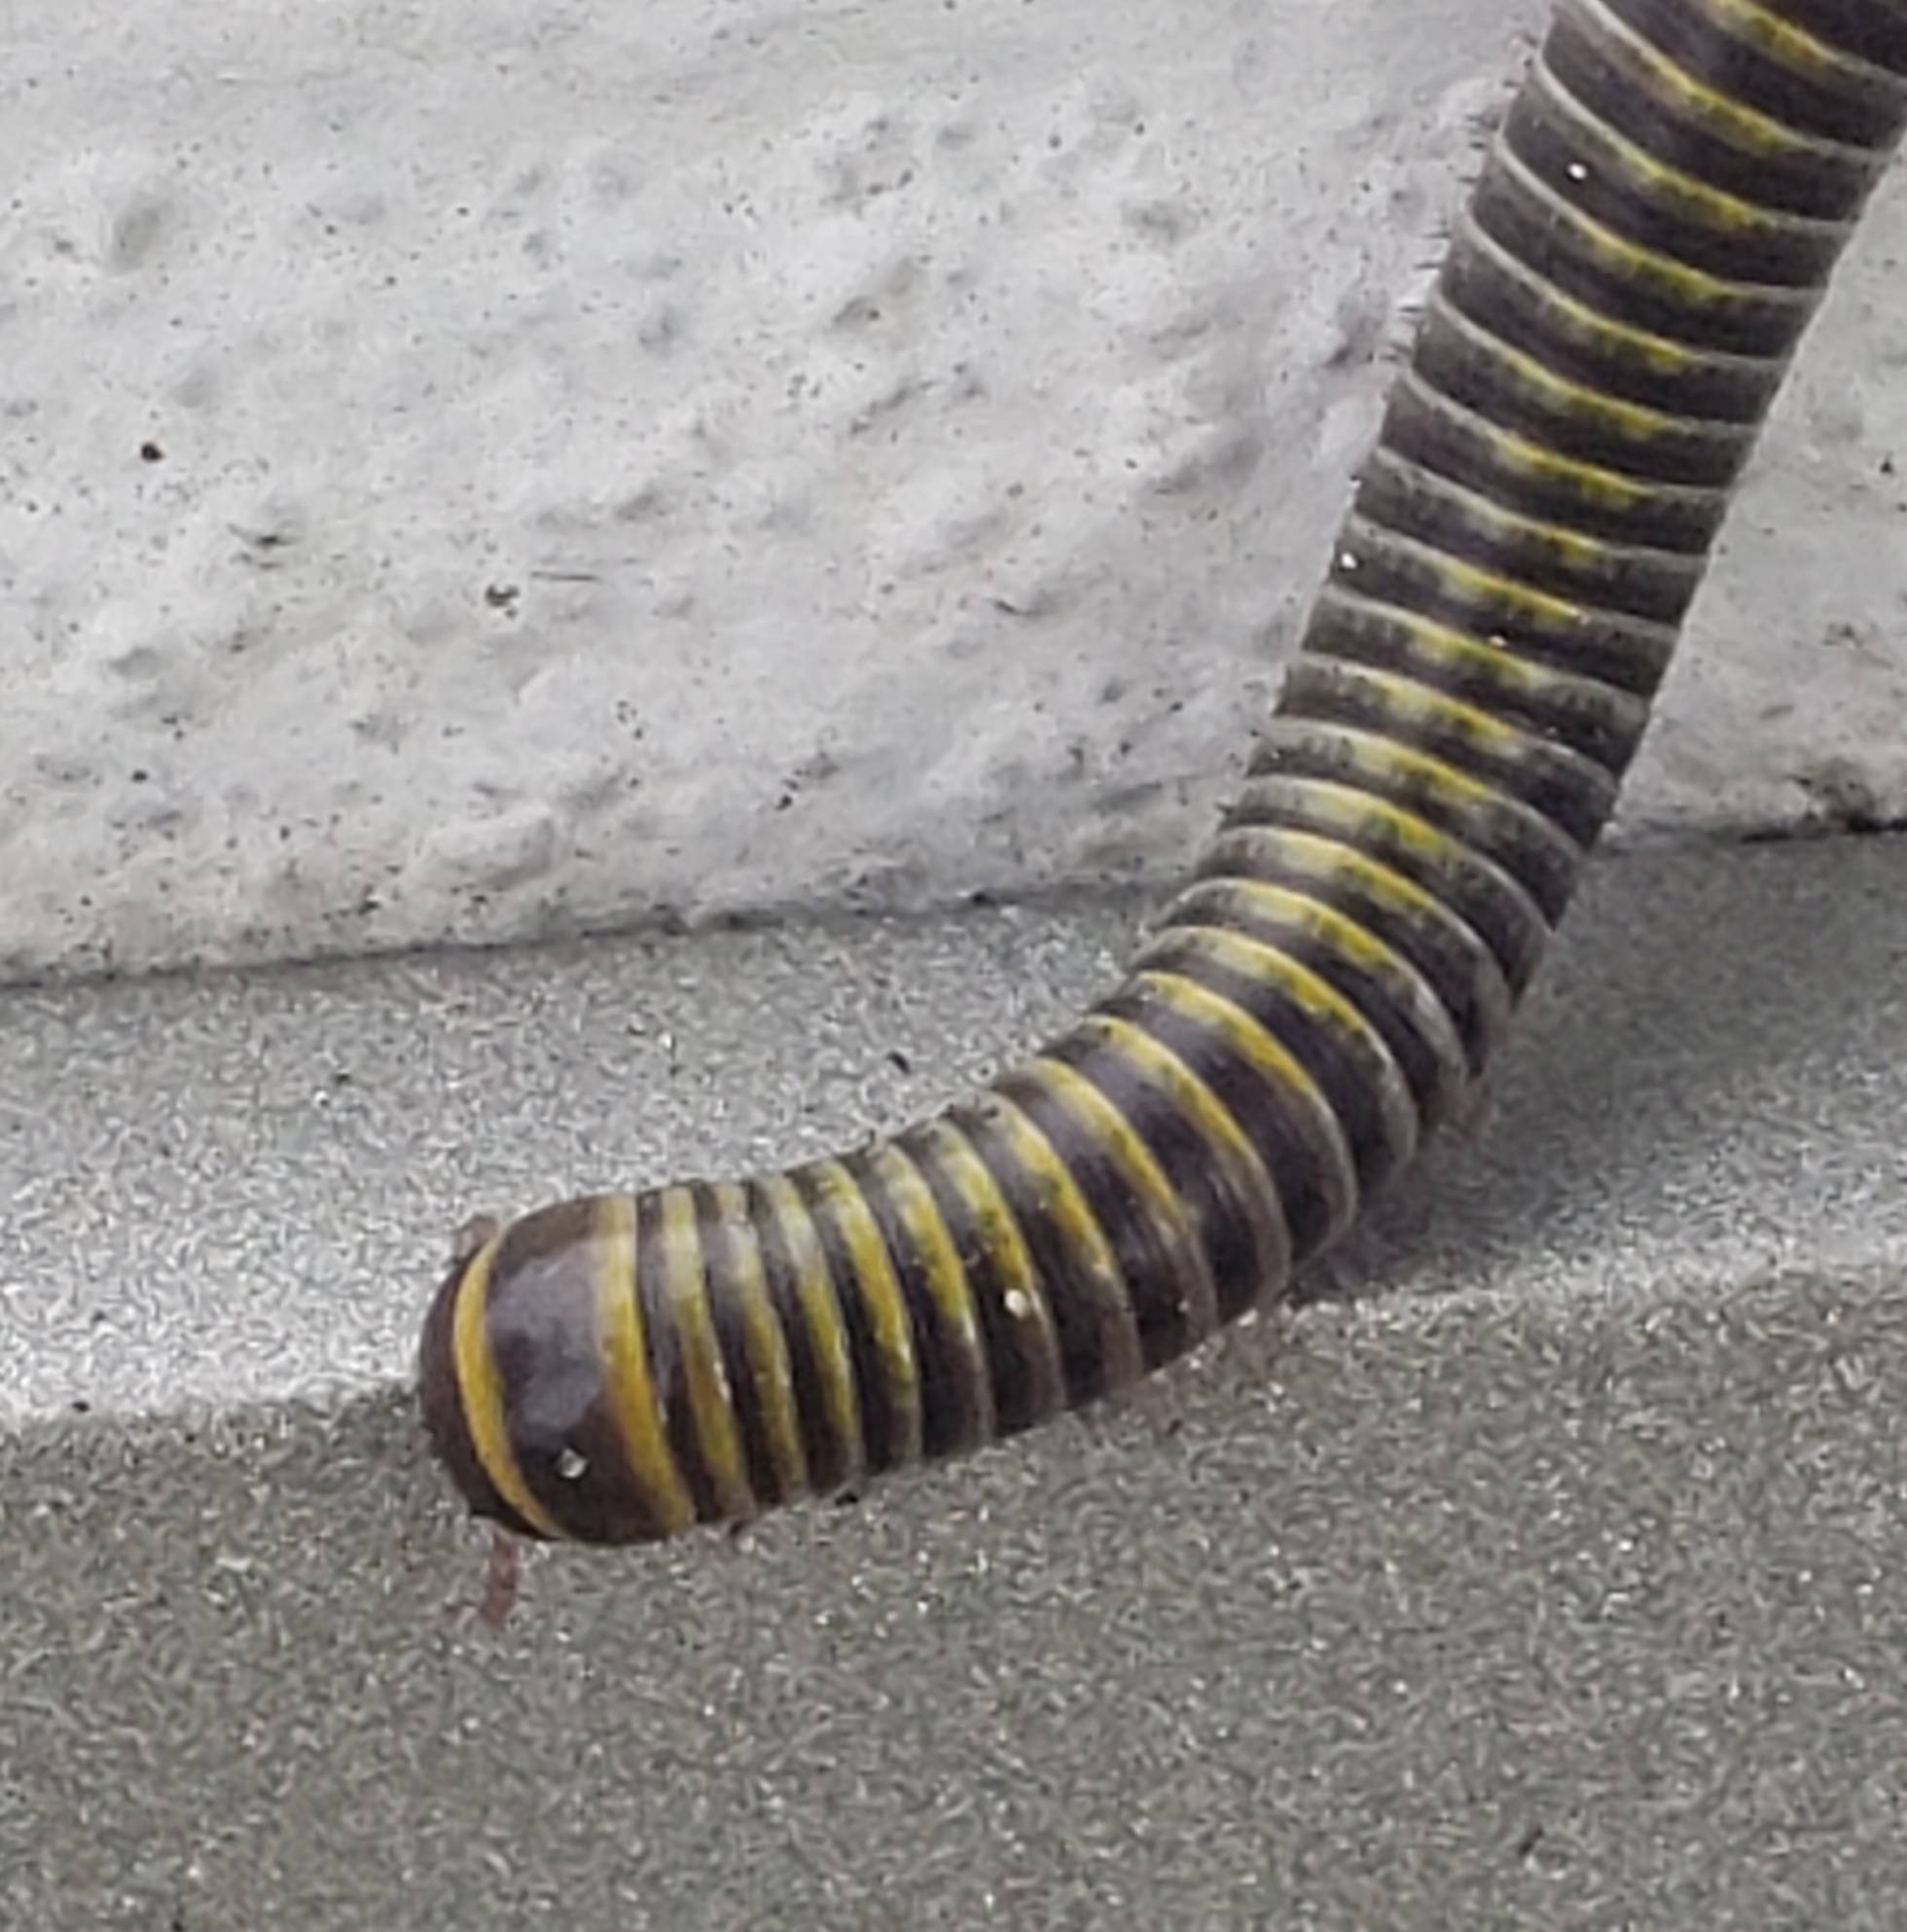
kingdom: Animalia
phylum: Arthropoda
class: Diplopoda
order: Spirobolida
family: Rhinocricidae
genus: Anadenobolus
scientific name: Anadenobolus monilicornis
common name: Caribbean millipede
